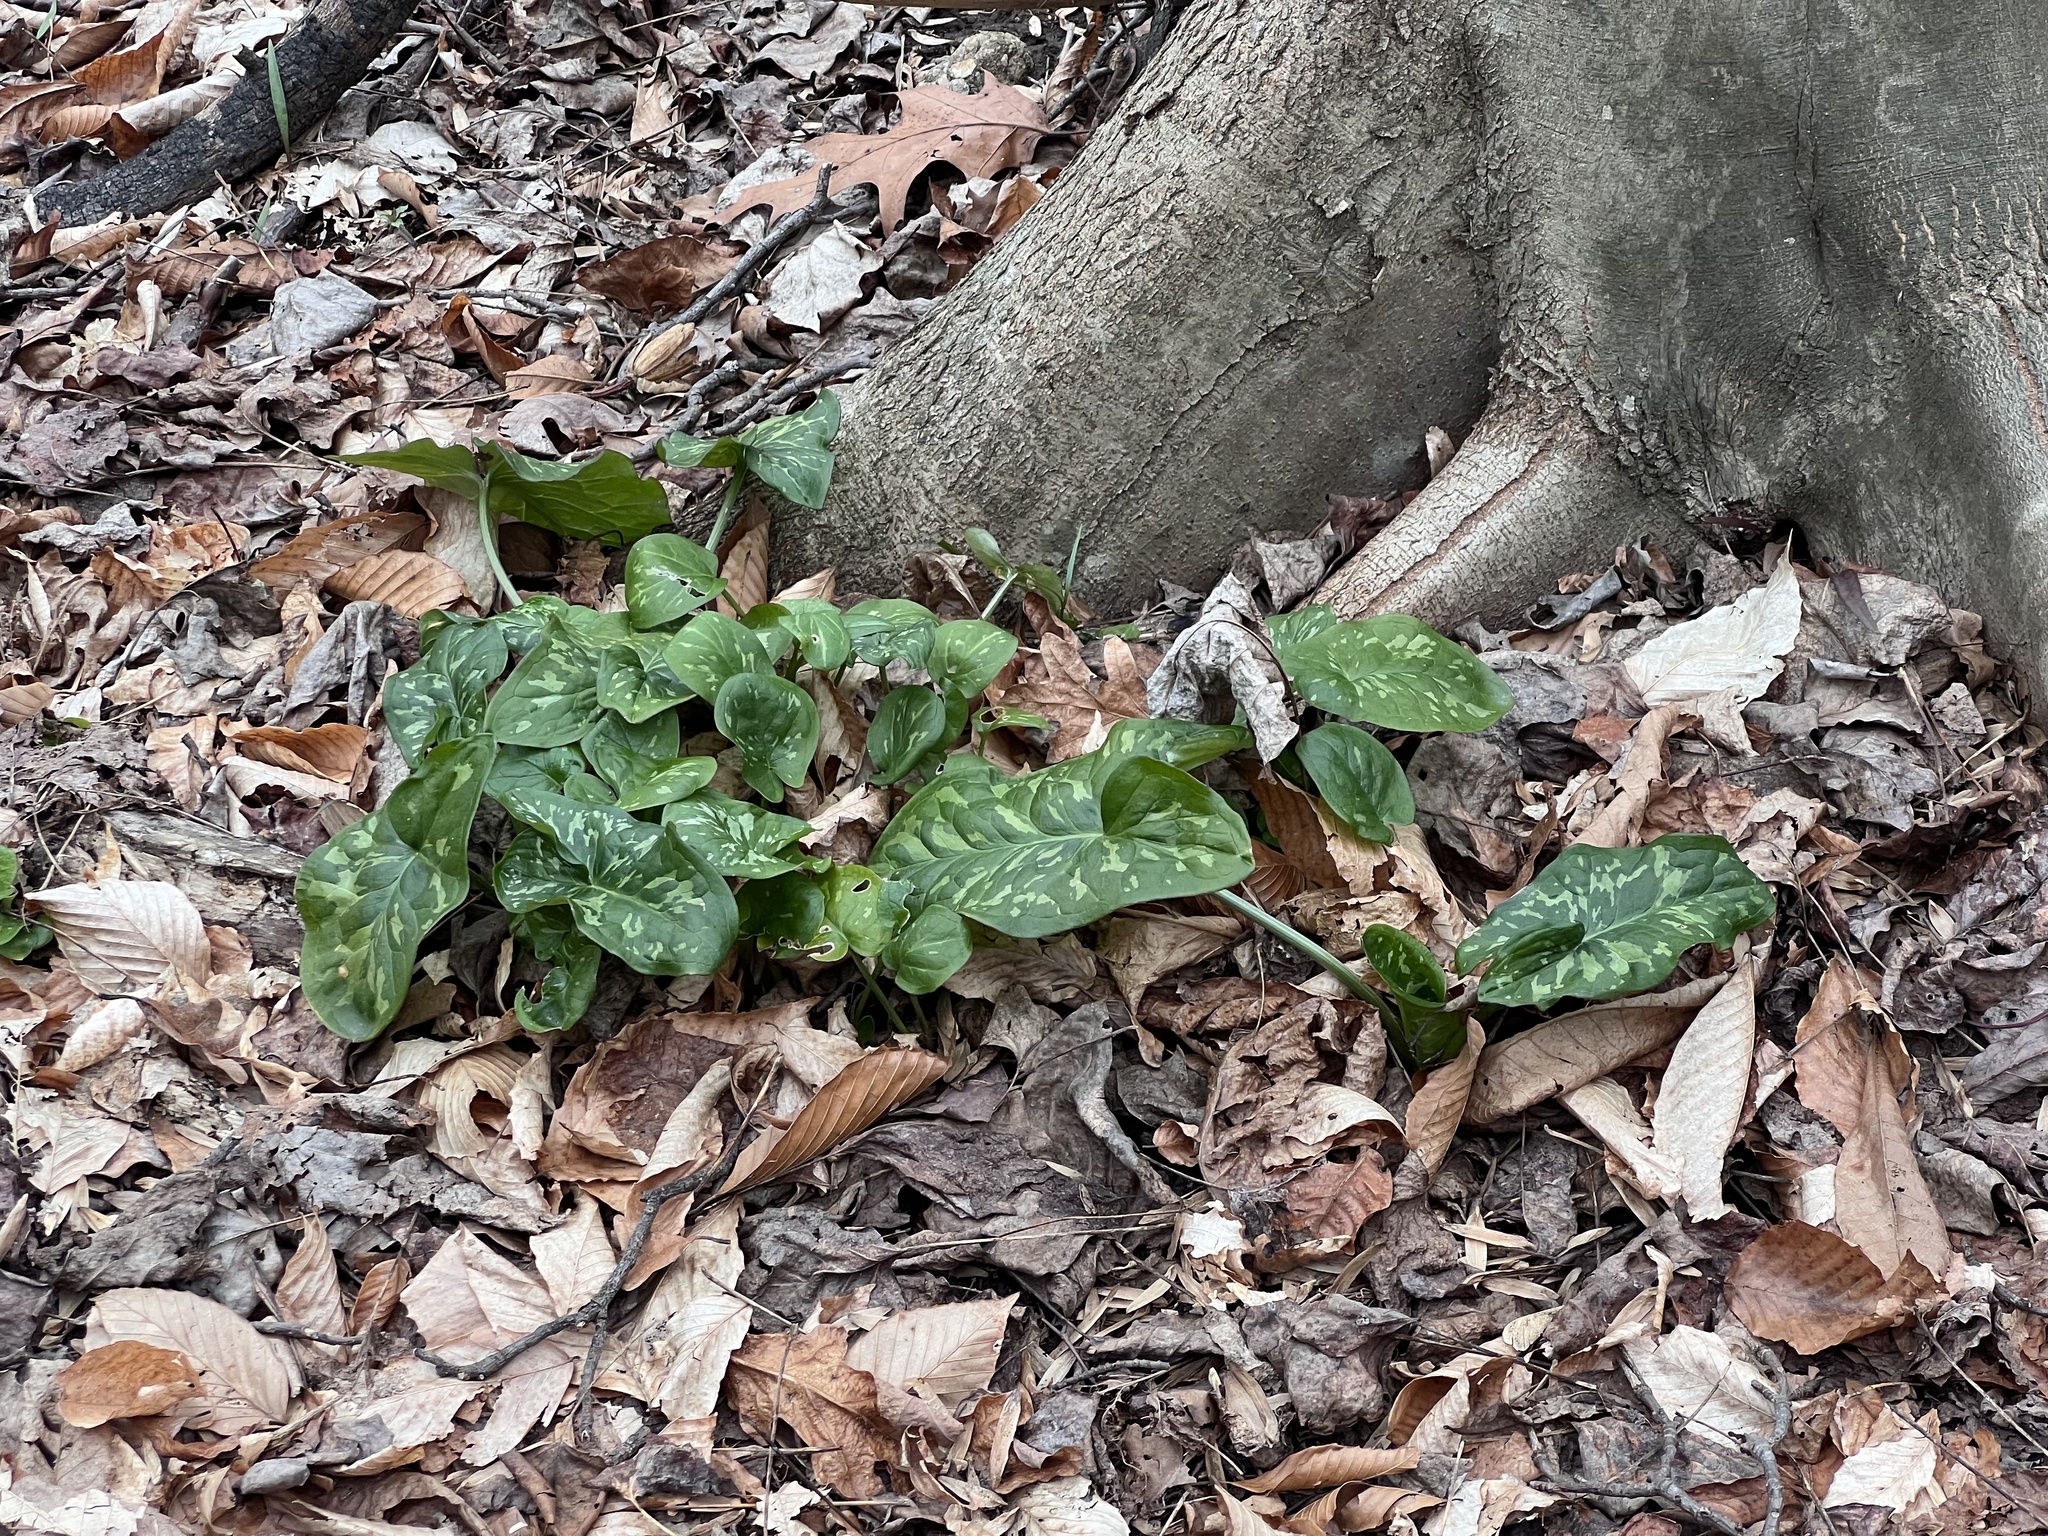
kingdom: Plantae
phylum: Tracheophyta
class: Liliopsida
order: Alismatales
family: Araceae
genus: Arum
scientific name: Arum italicum
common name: Italian lords-and-ladies
